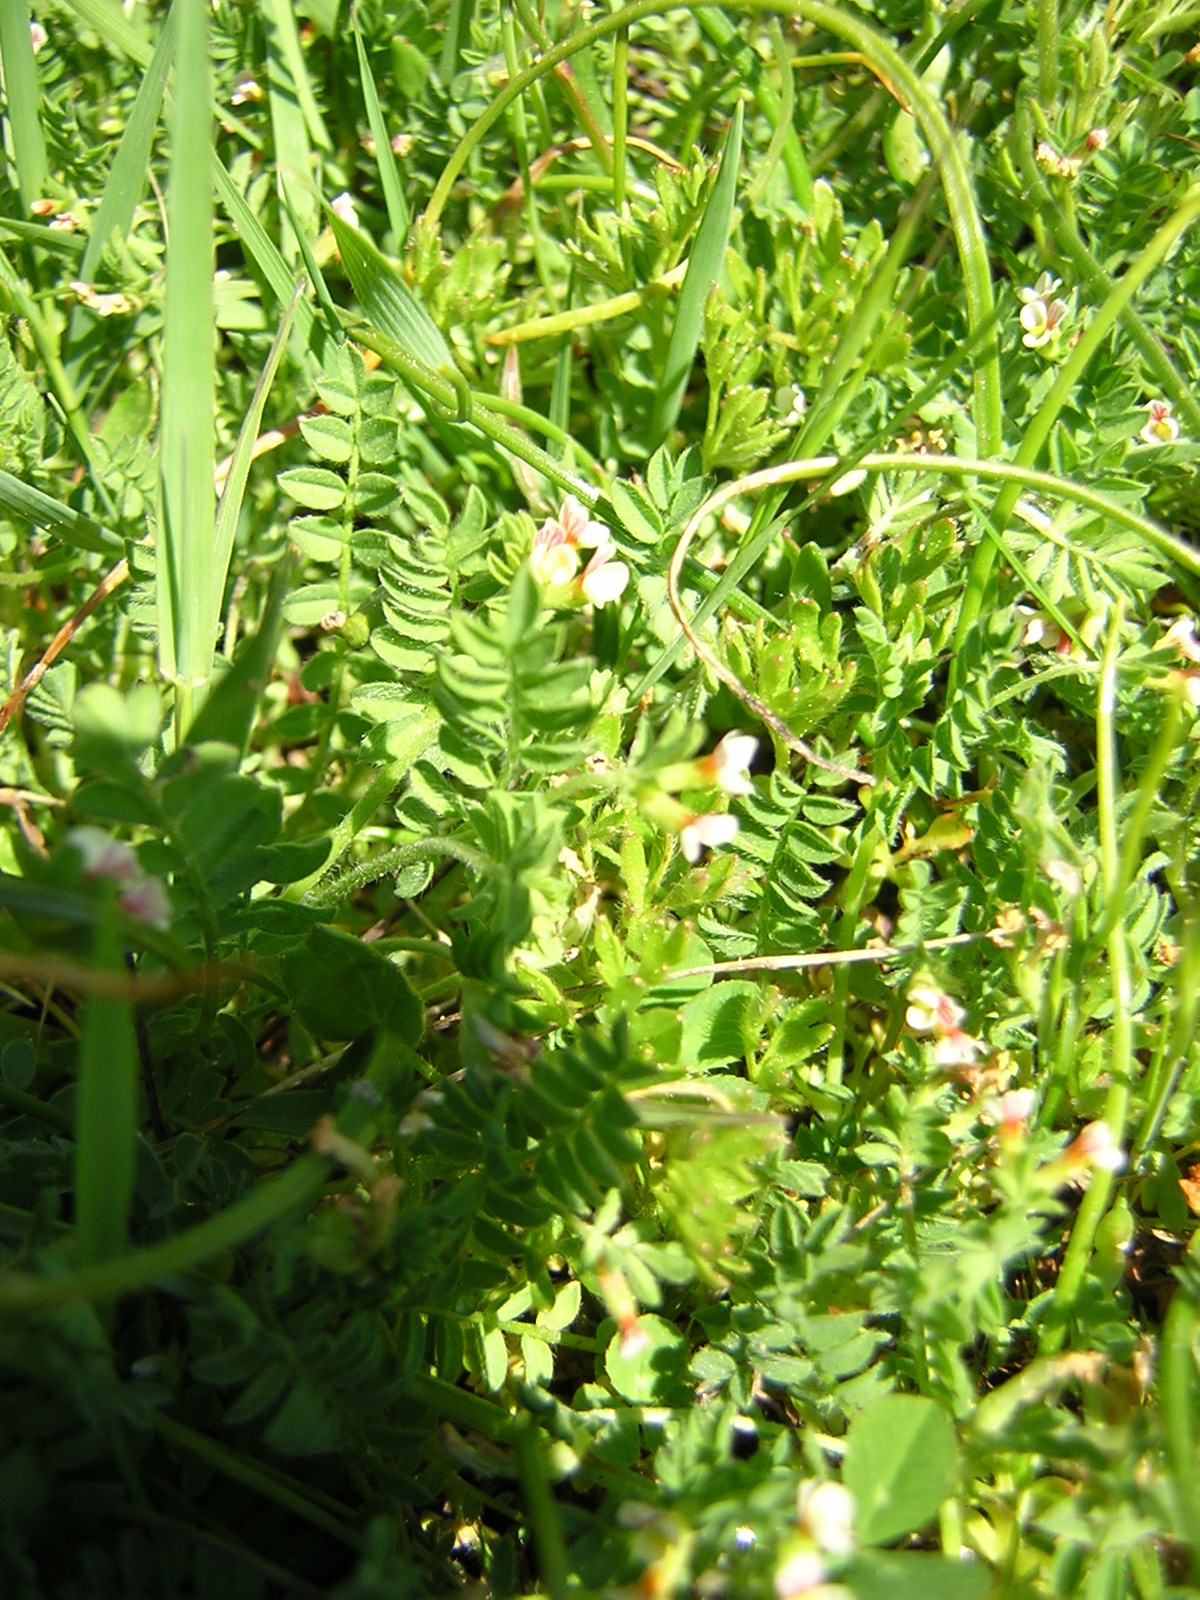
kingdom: Plantae
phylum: Tracheophyta
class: Magnoliopsida
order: Fabales
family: Fabaceae
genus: Ornithopus
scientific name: Ornithopus perpusillus
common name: Bird's-foot
